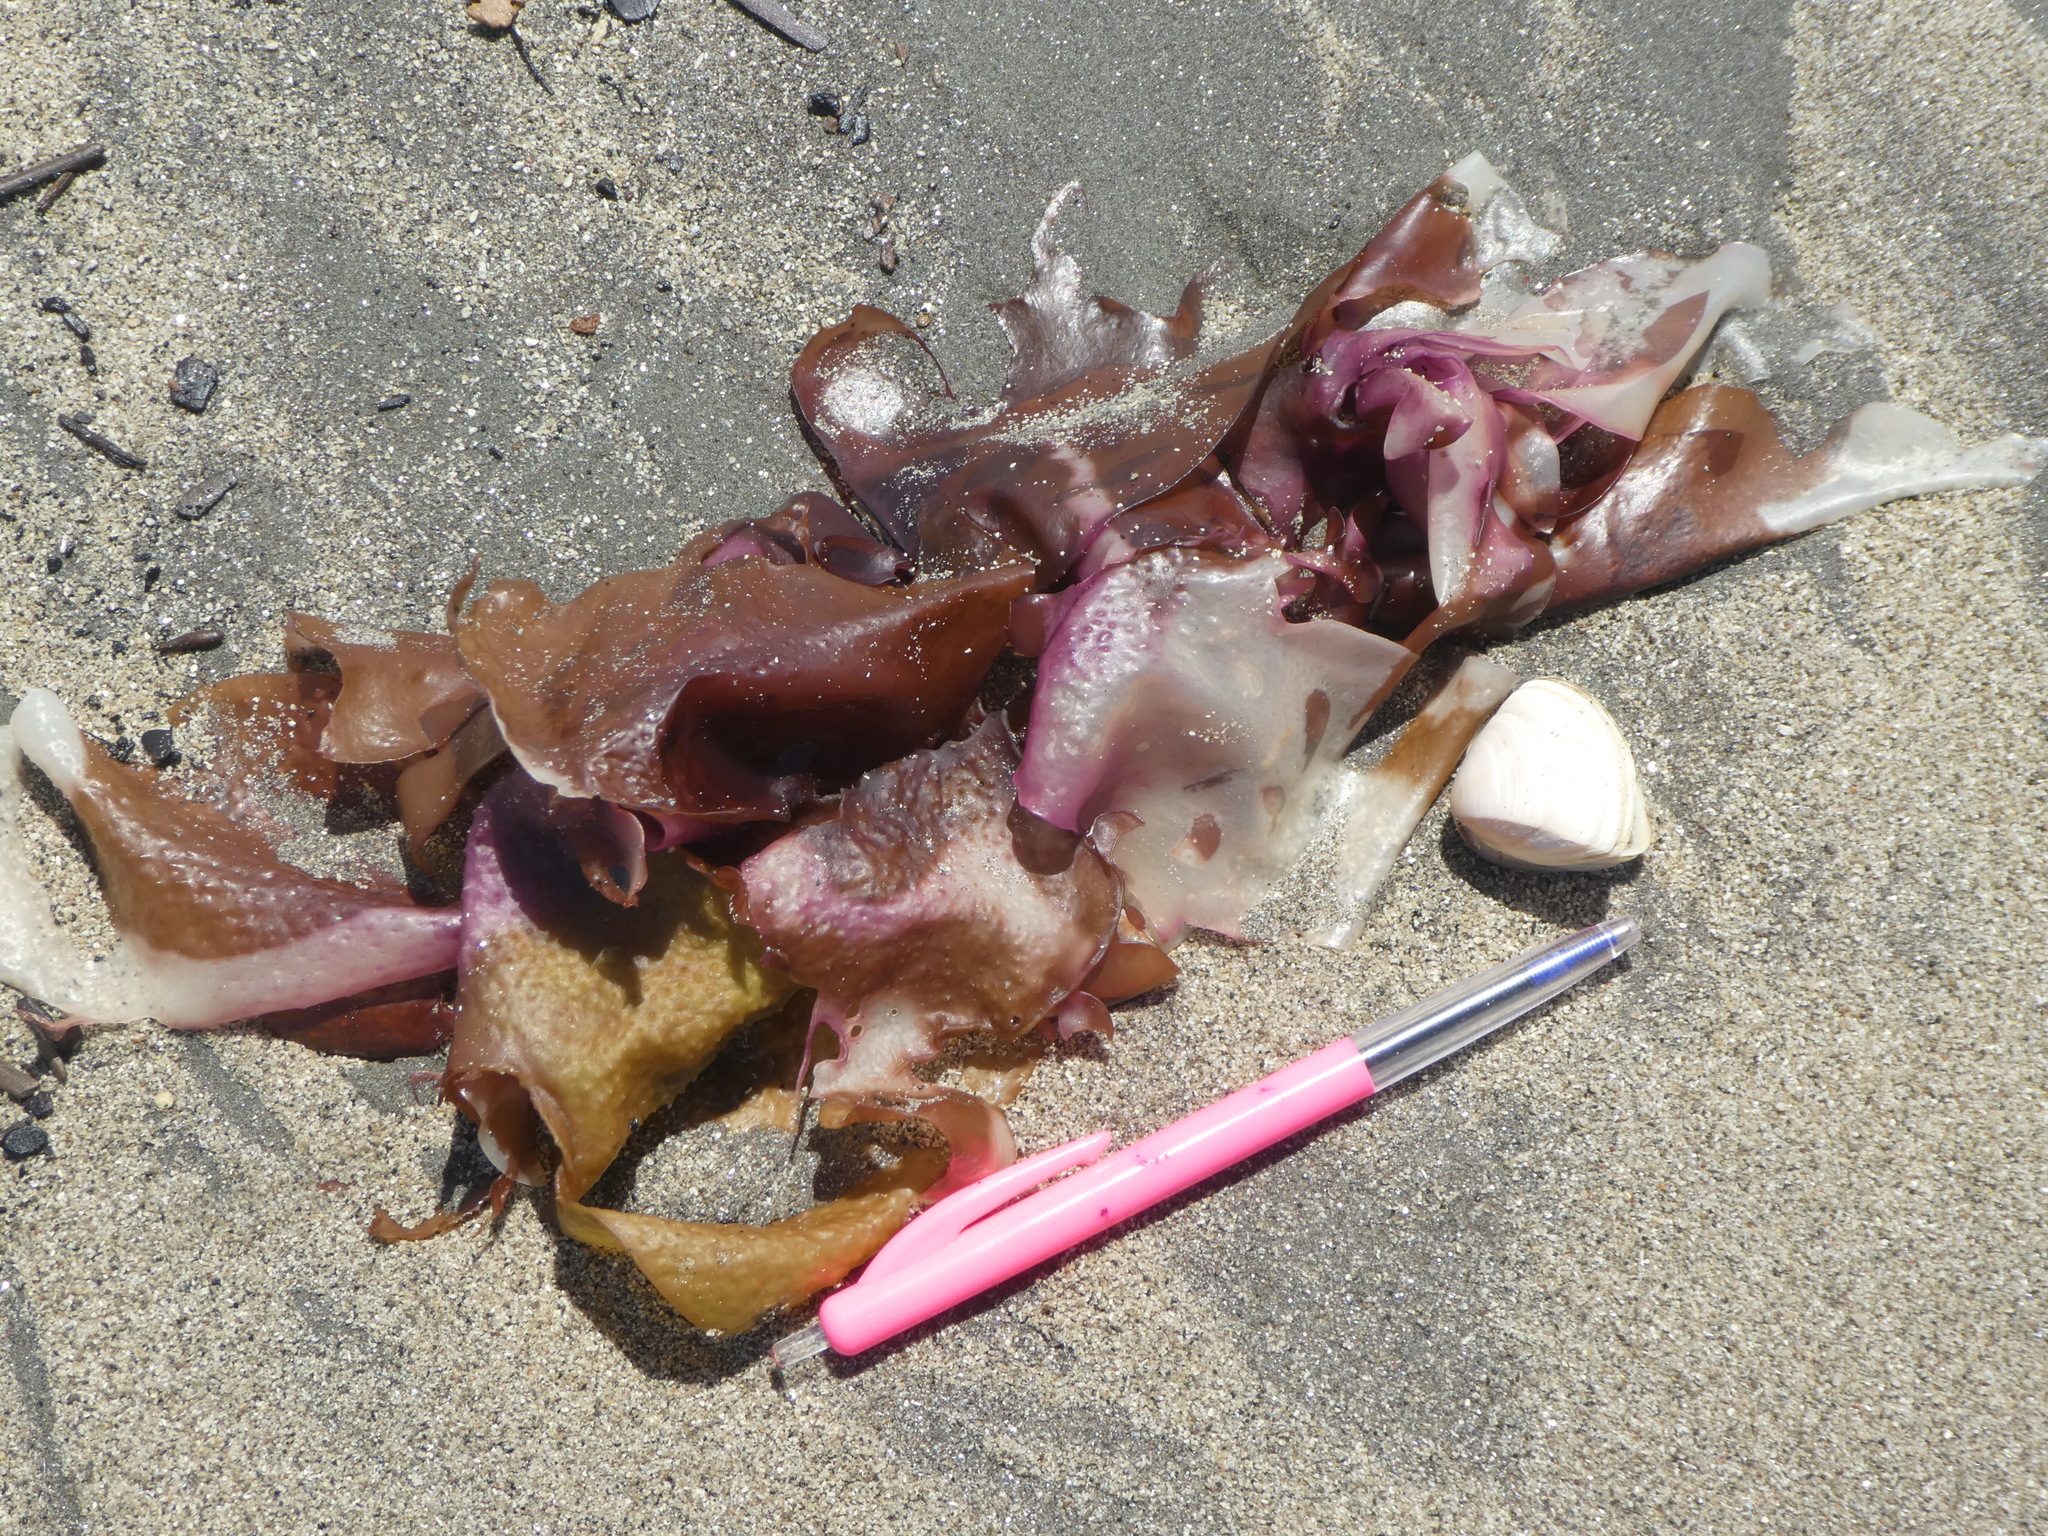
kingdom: Plantae
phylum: Rhodophyta
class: Florideophyceae
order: Gigartinales
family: Gigartinaceae
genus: Sarcothalia
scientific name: Sarcothalia
